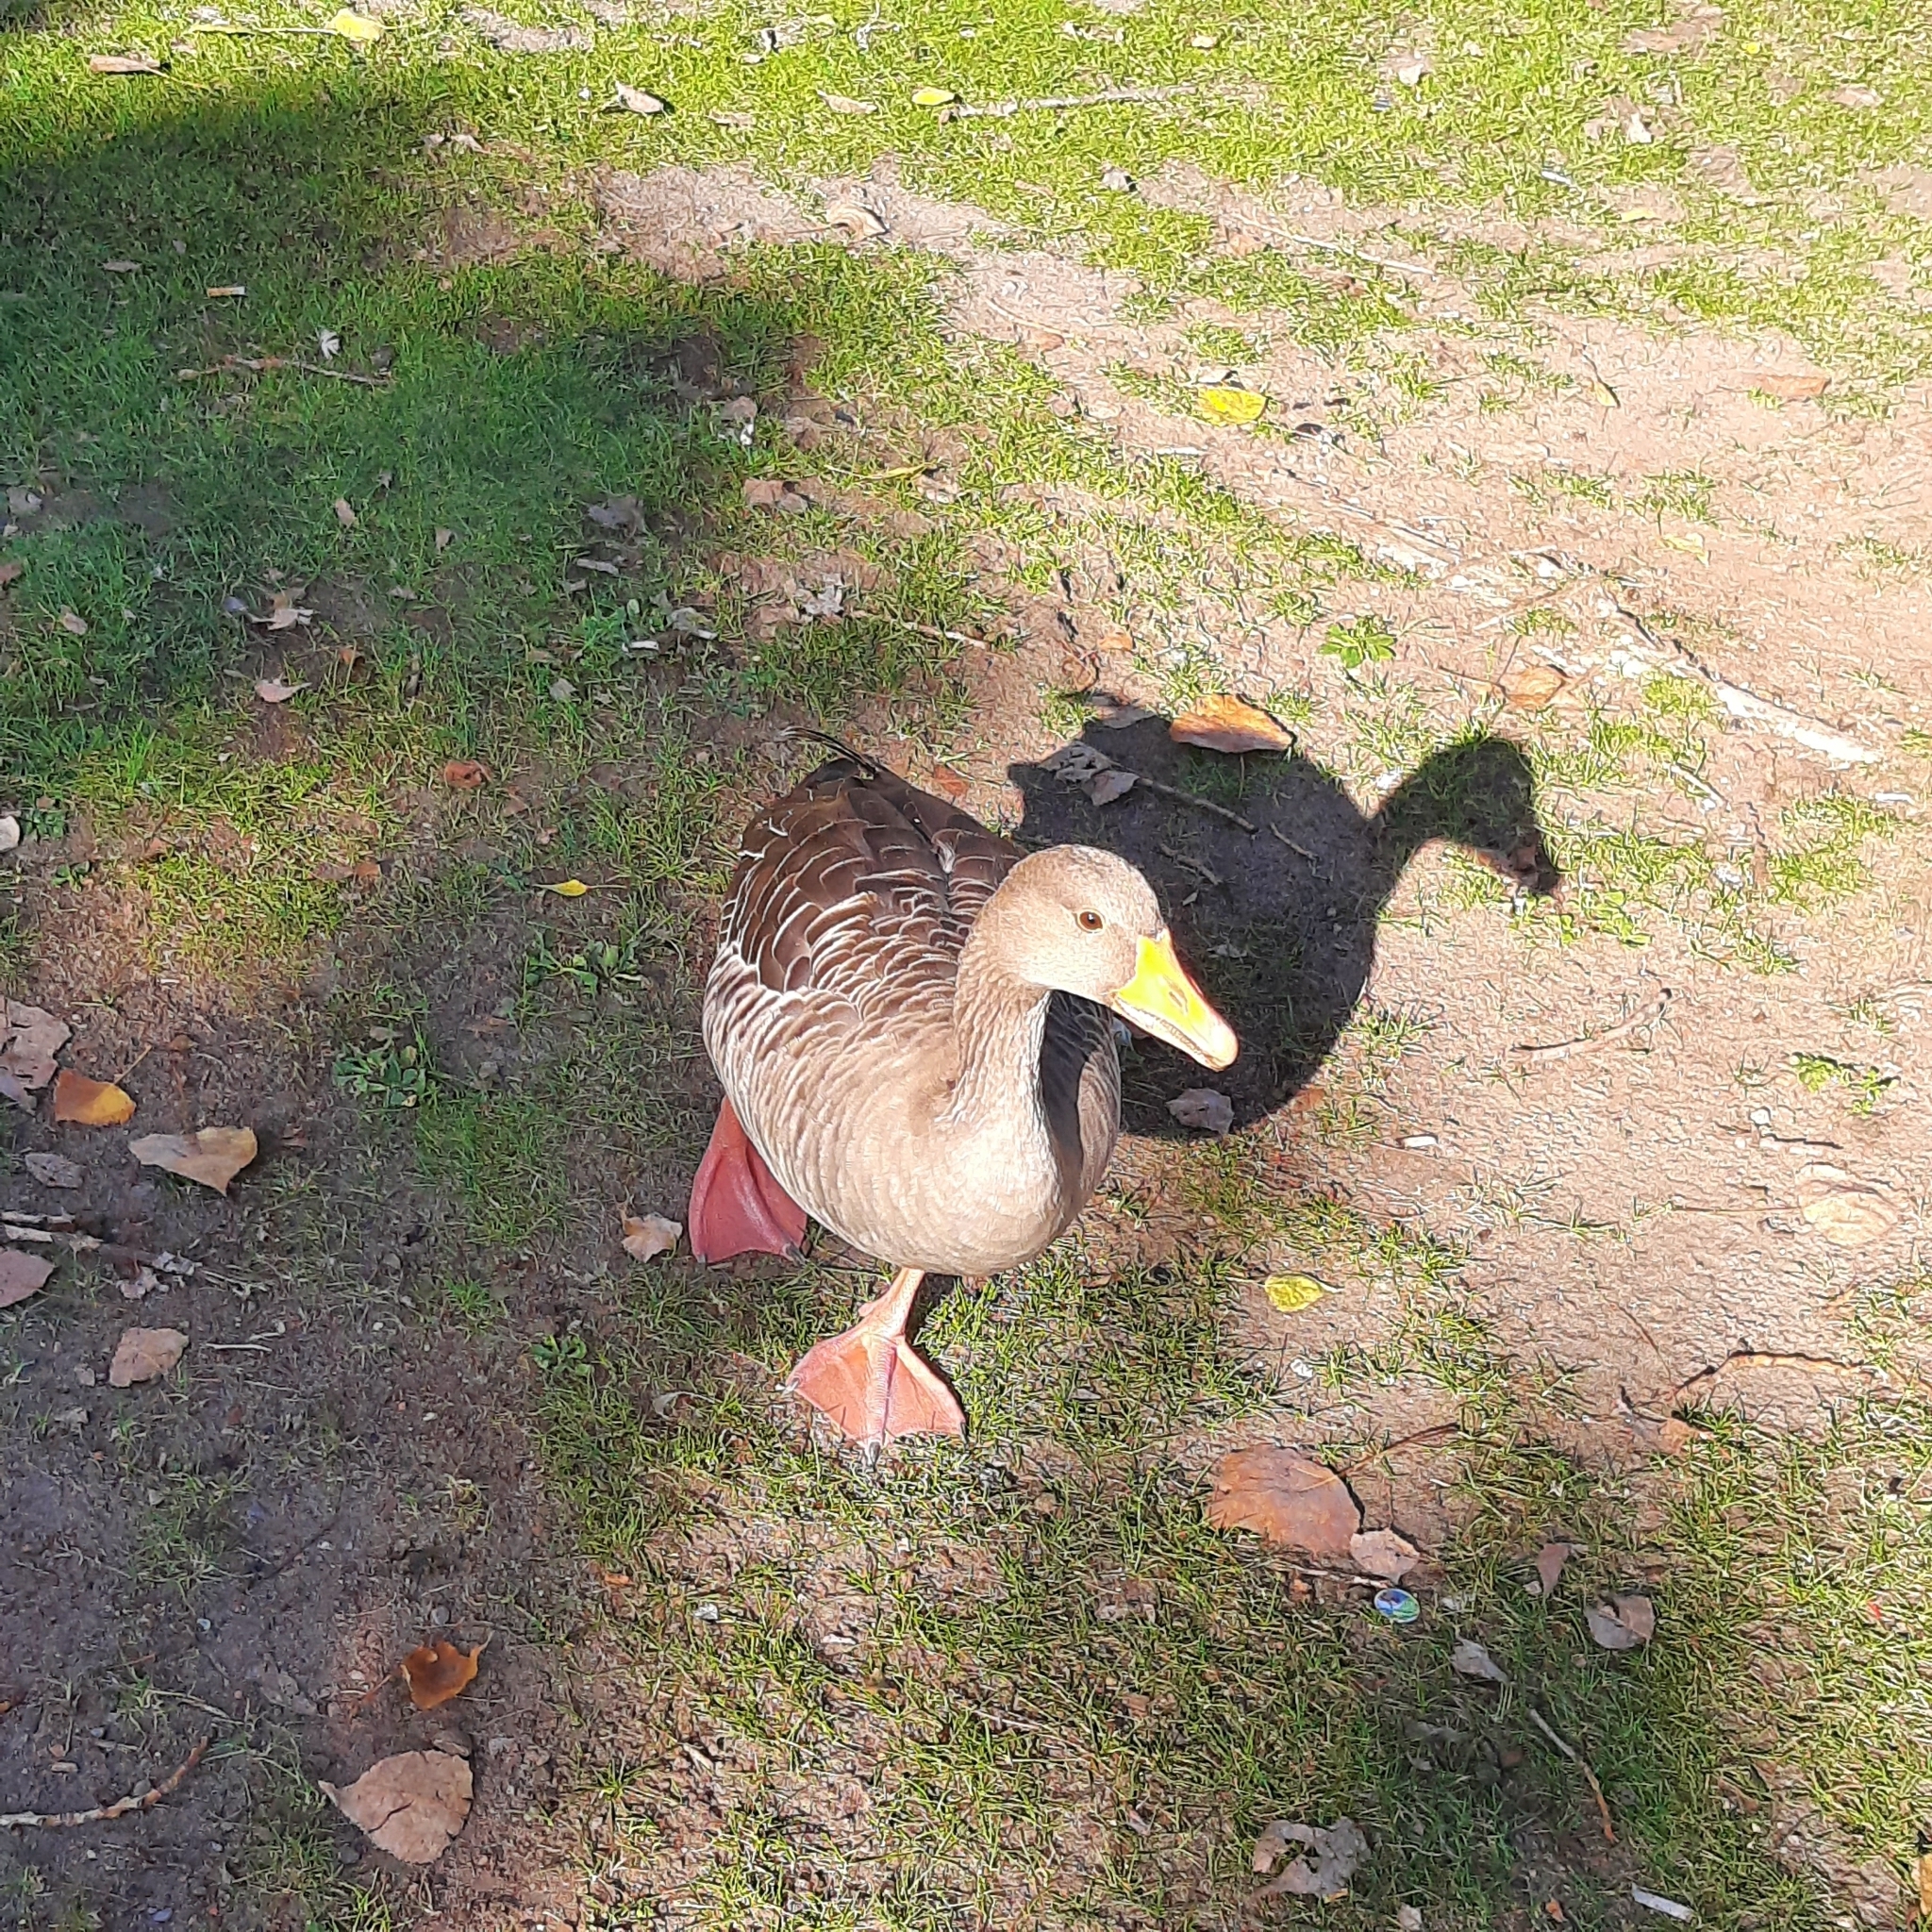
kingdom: Animalia
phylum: Chordata
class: Aves
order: Anseriformes
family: Anatidae
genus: Anser
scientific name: Anser anser
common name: Greylag goose
